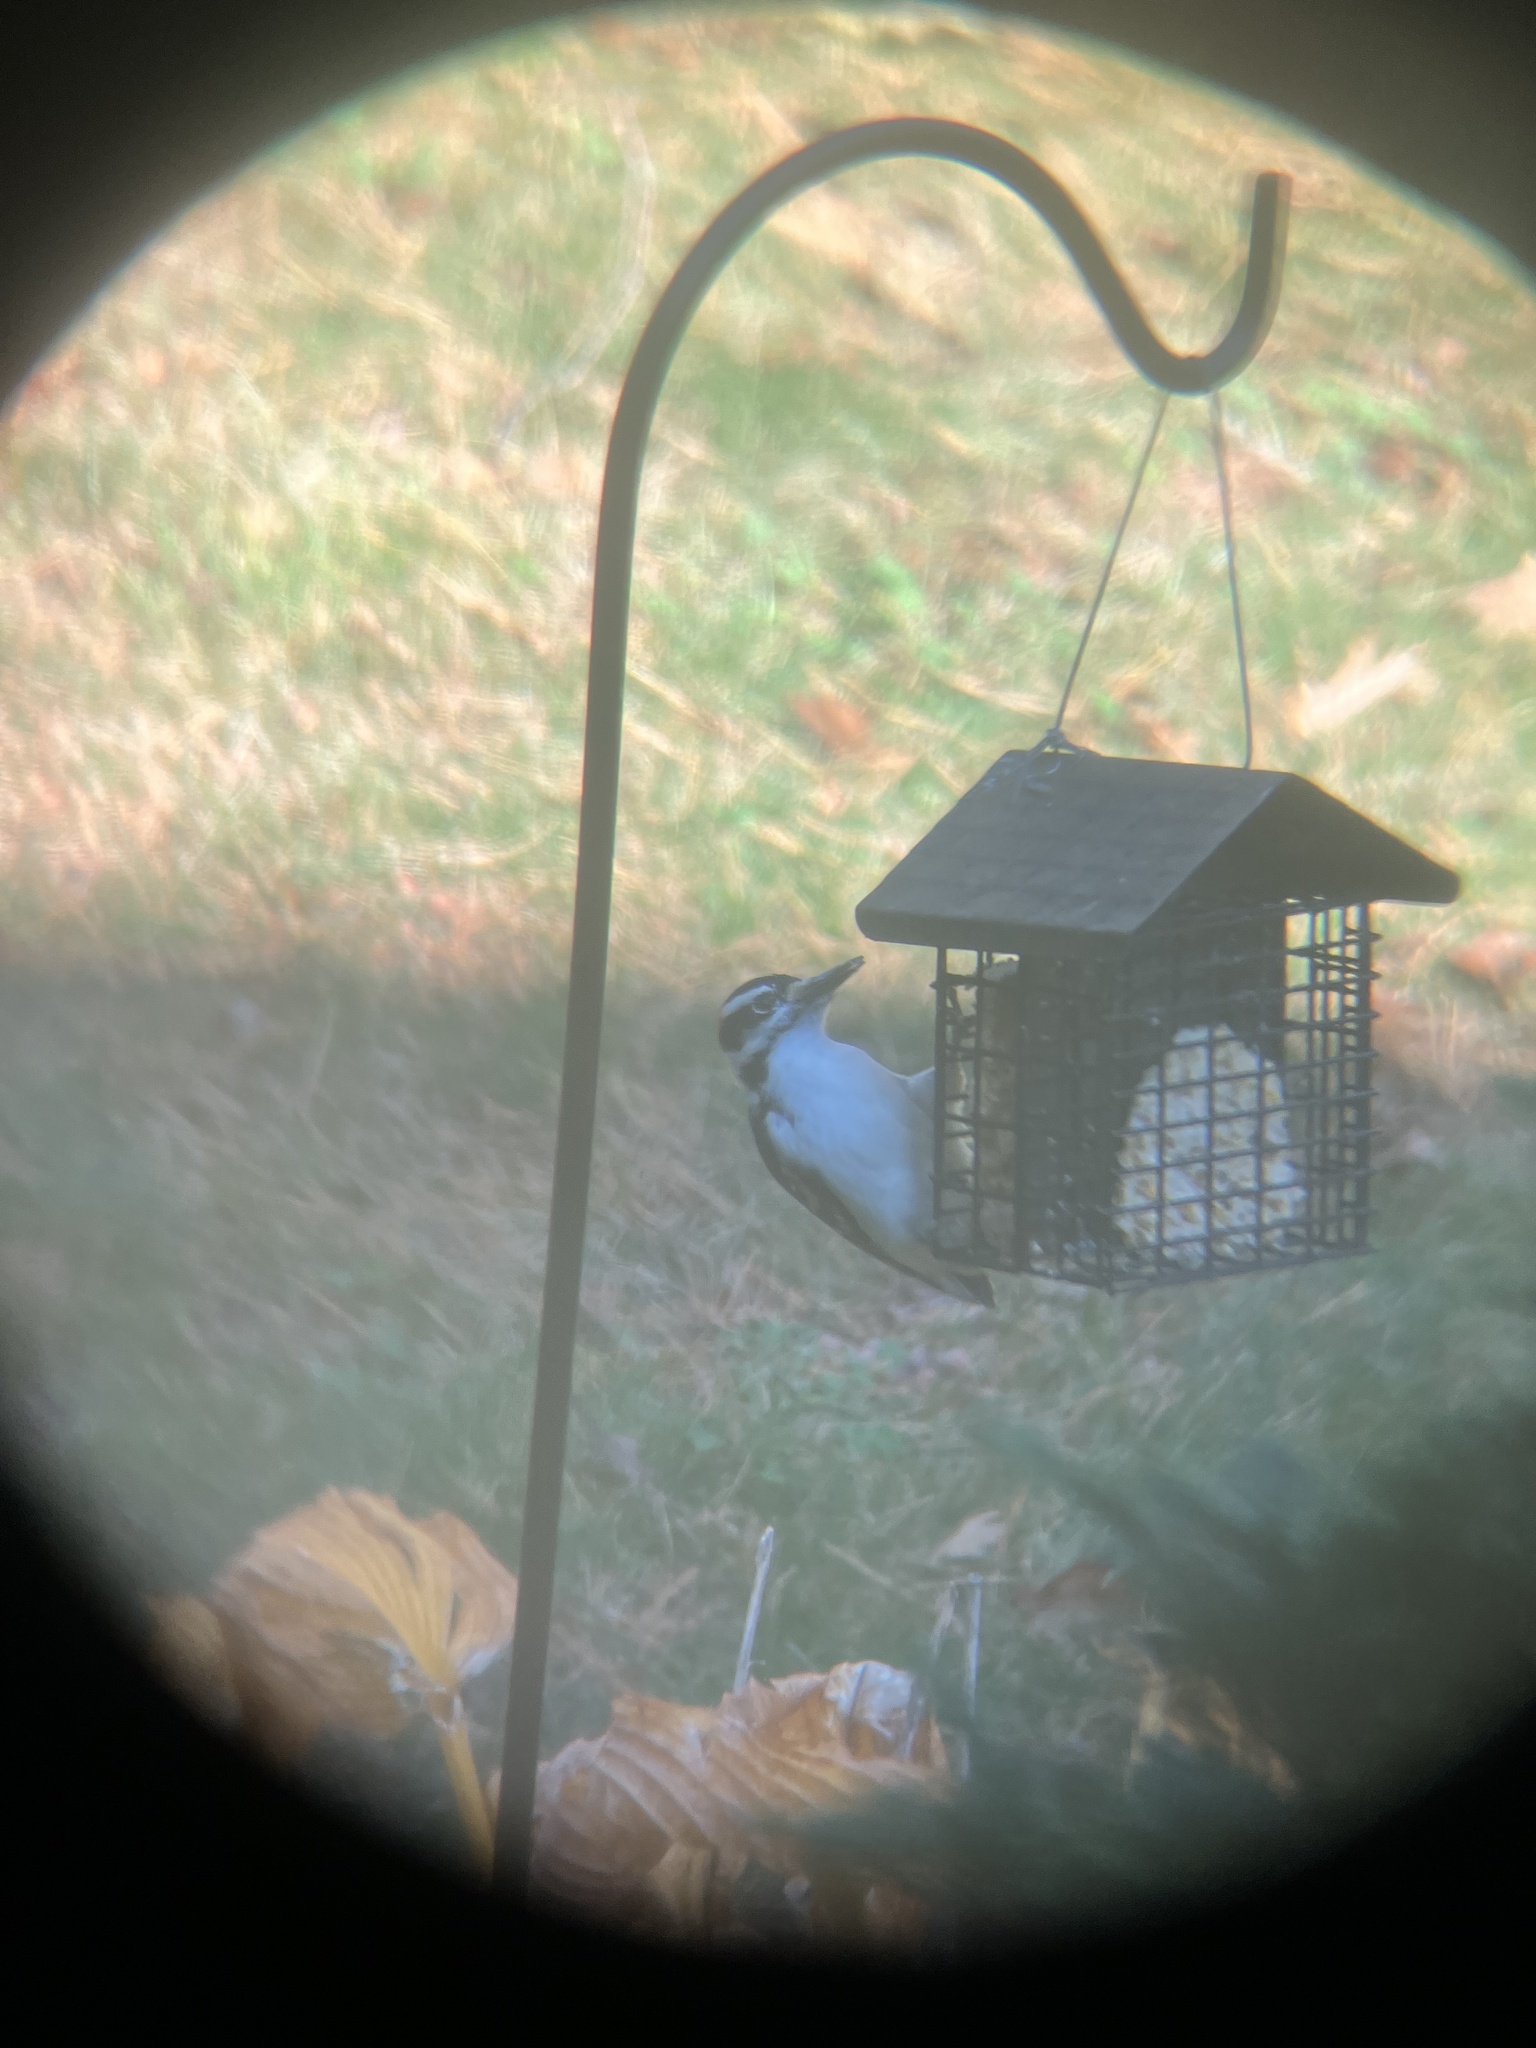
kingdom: Animalia
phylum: Chordata
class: Aves
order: Piciformes
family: Picidae
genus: Leuconotopicus
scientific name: Leuconotopicus villosus
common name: Hairy woodpecker
